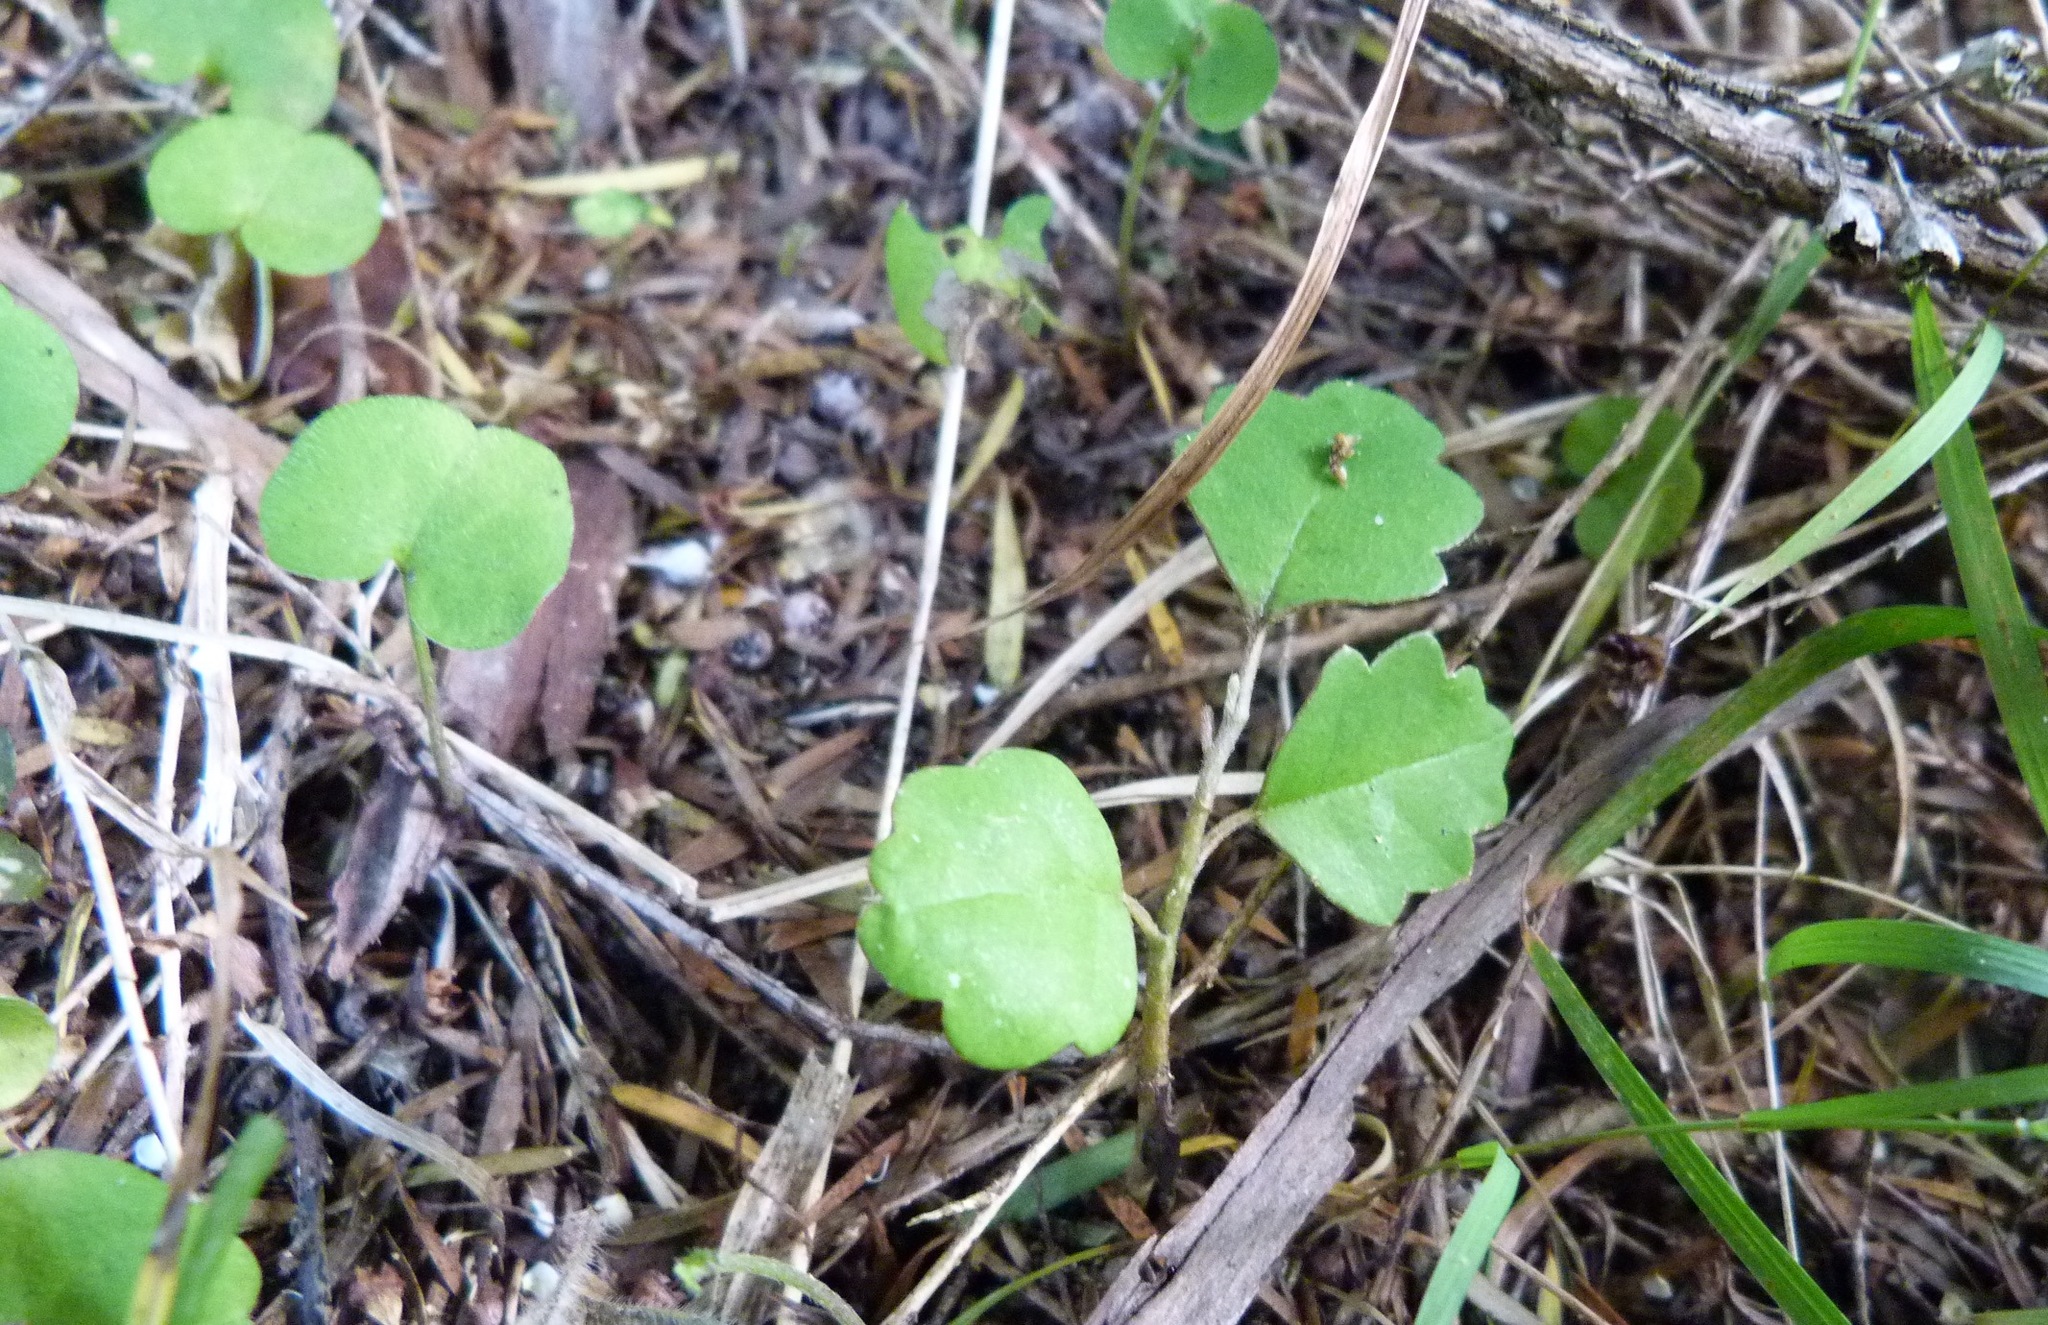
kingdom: Plantae
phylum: Tracheophyta
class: Magnoliopsida
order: Apiales
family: Pennantiaceae
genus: Pennantia
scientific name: Pennantia corymbosa
